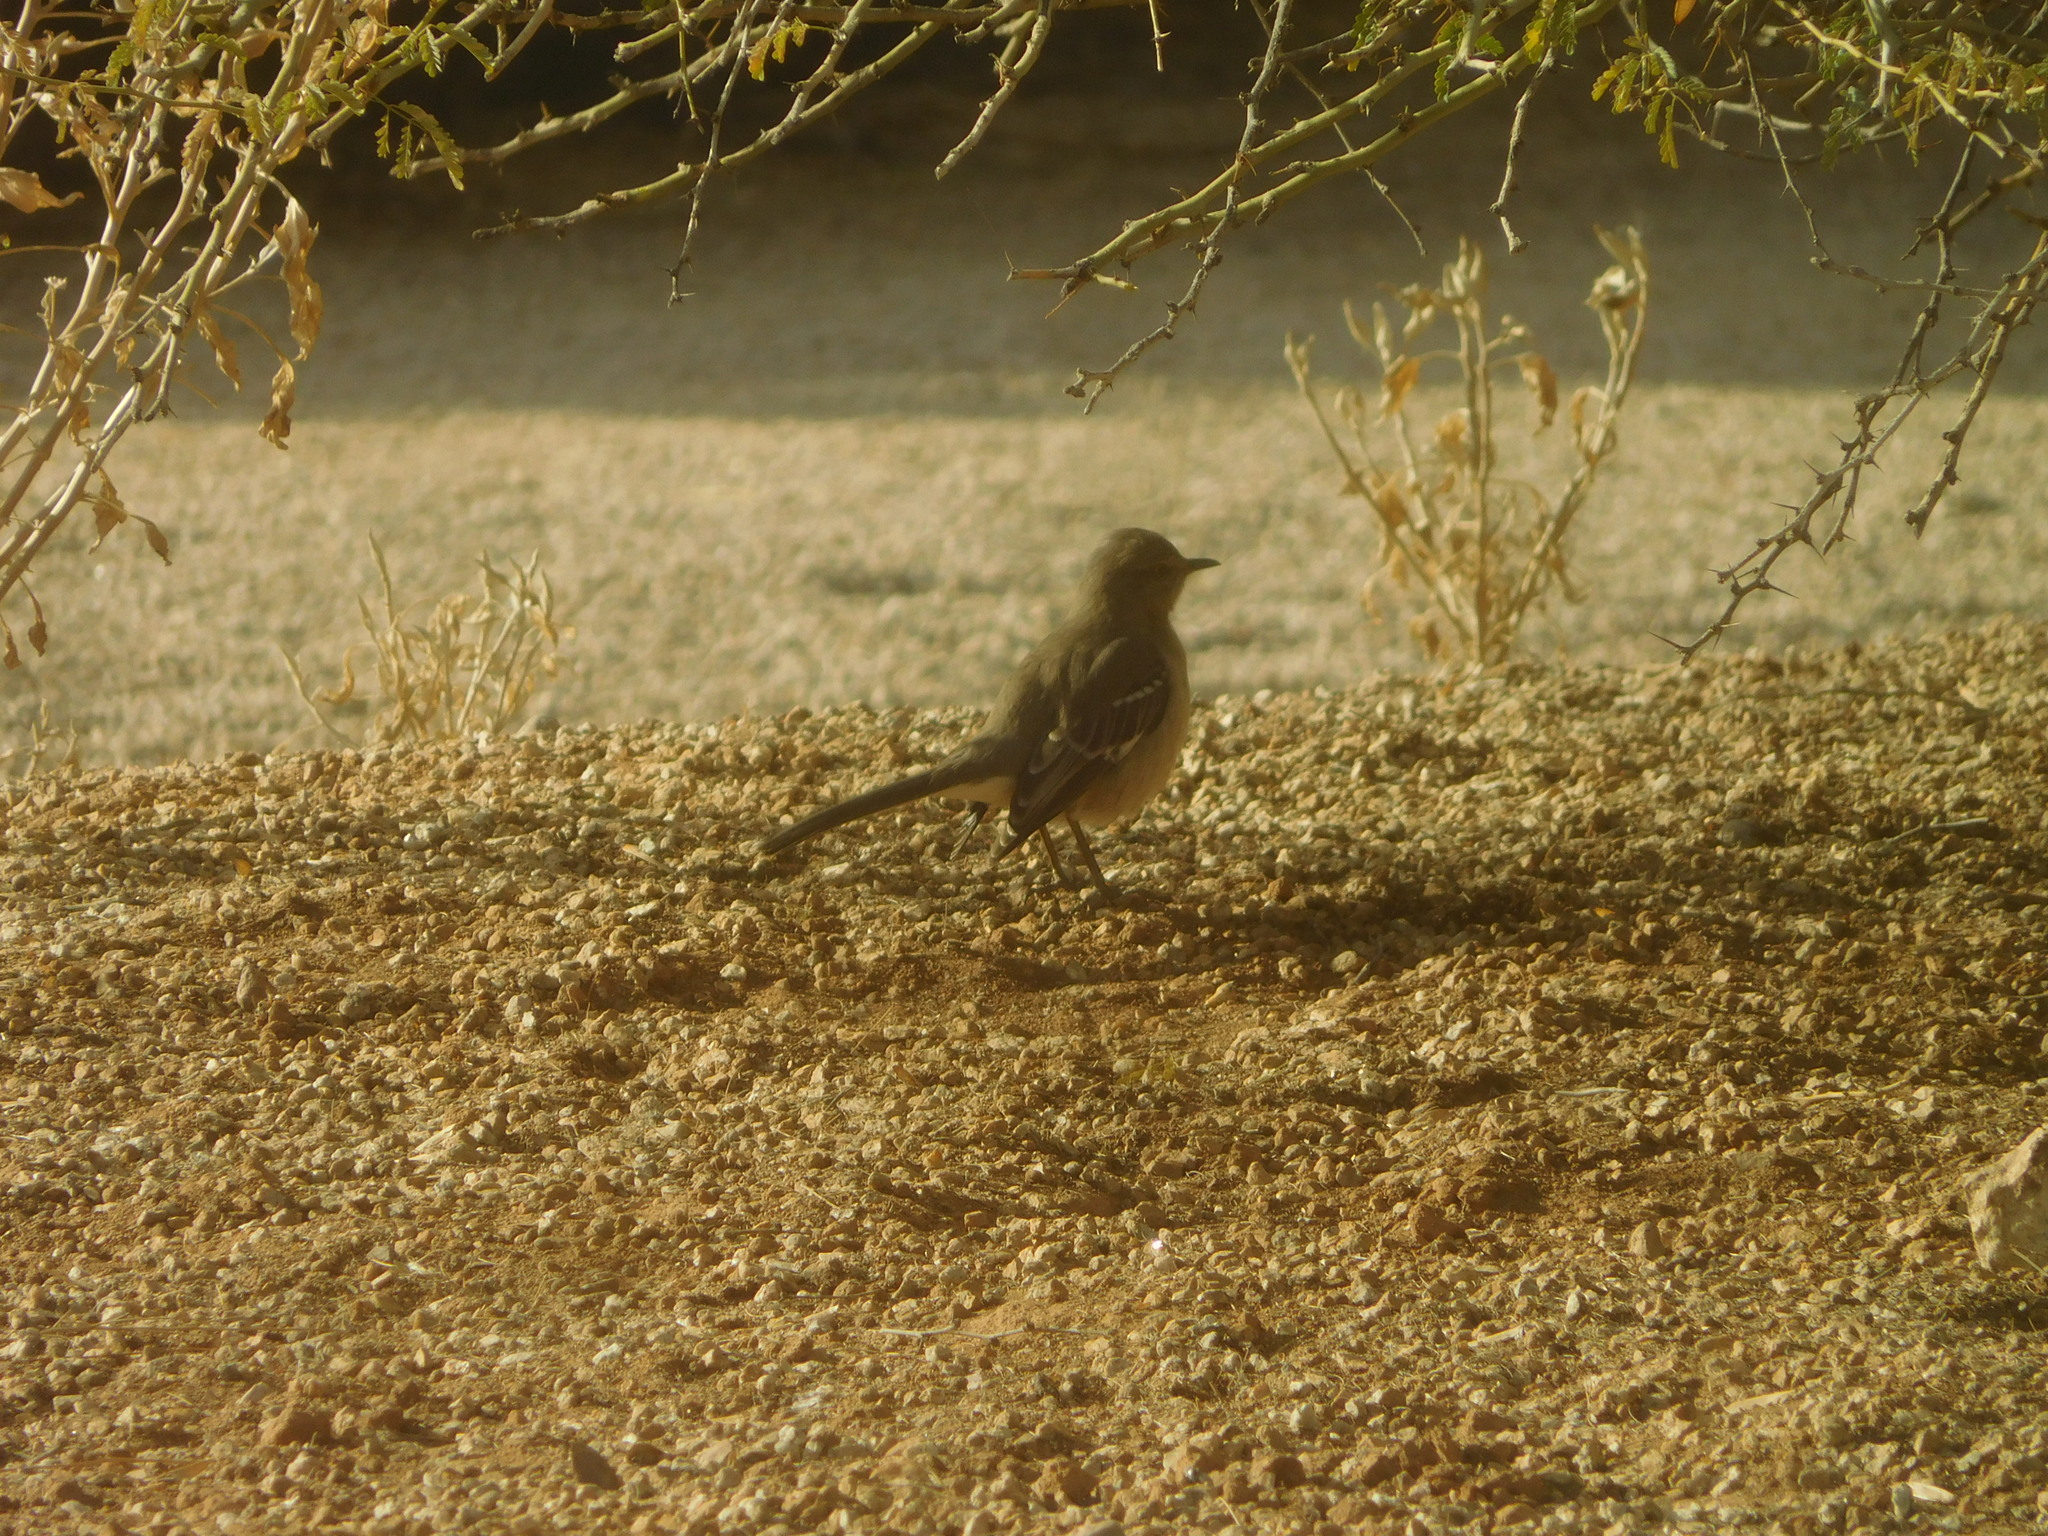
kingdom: Animalia
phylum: Chordata
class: Aves
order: Passeriformes
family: Mimidae
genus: Mimus
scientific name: Mimus polyglottos
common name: Northern mockingbird
